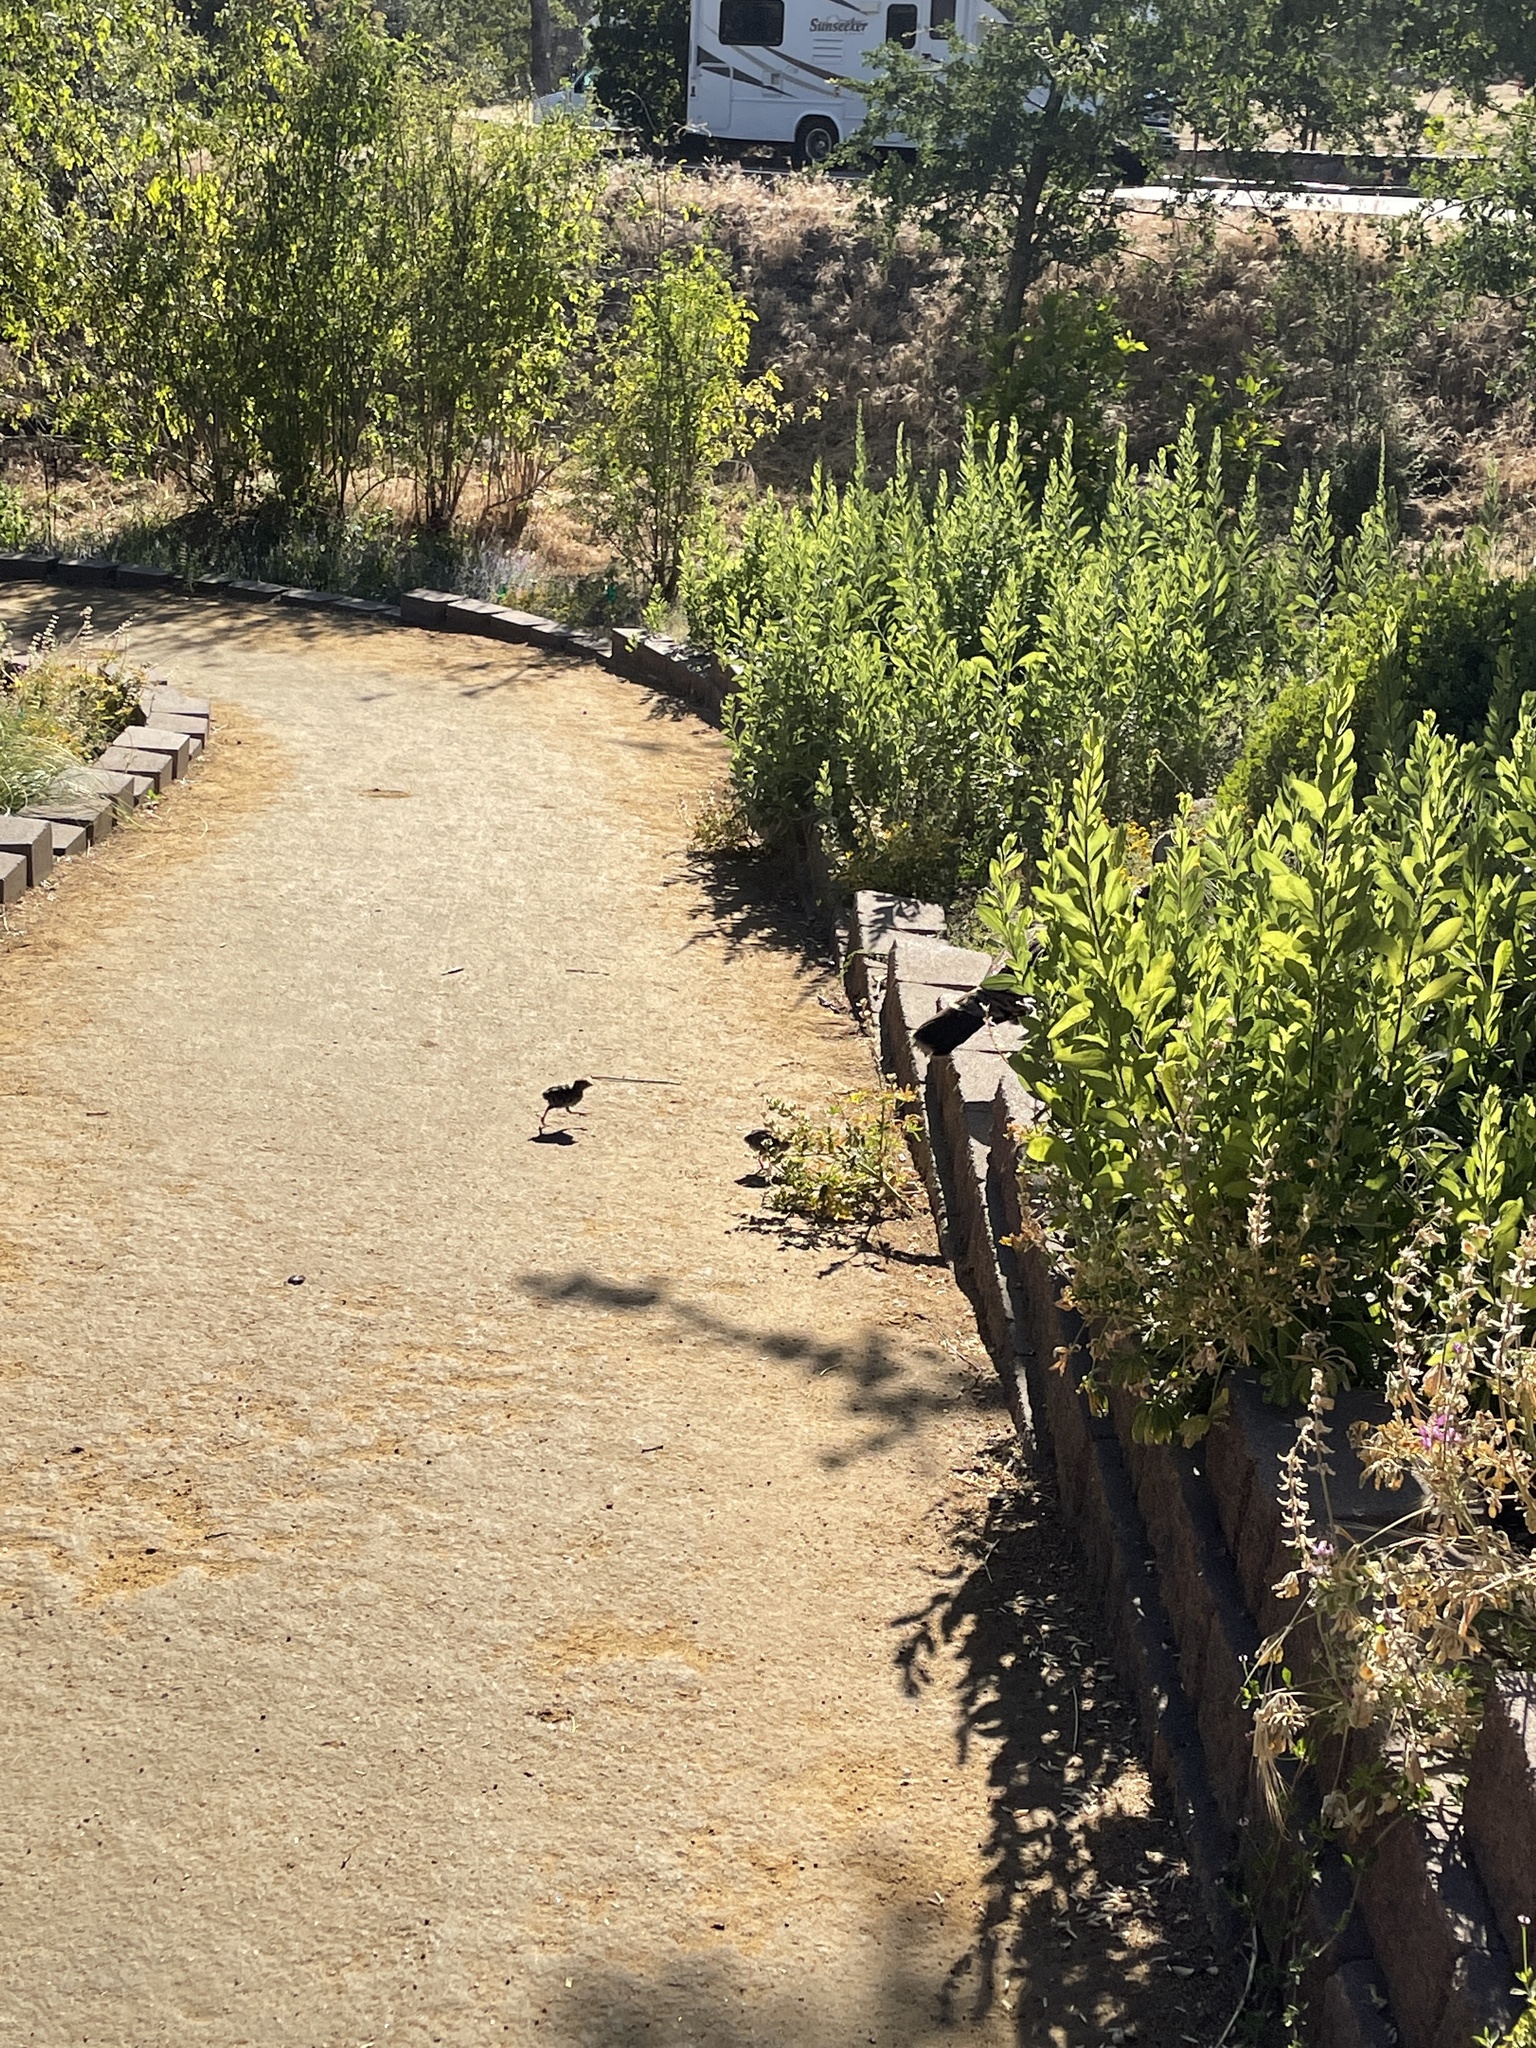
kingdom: Animalia
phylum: Chordata
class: Aves
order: Galliformes
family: Phasianidae
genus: Meleagris
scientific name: Meleagris gallopavo
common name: Wild turkey
